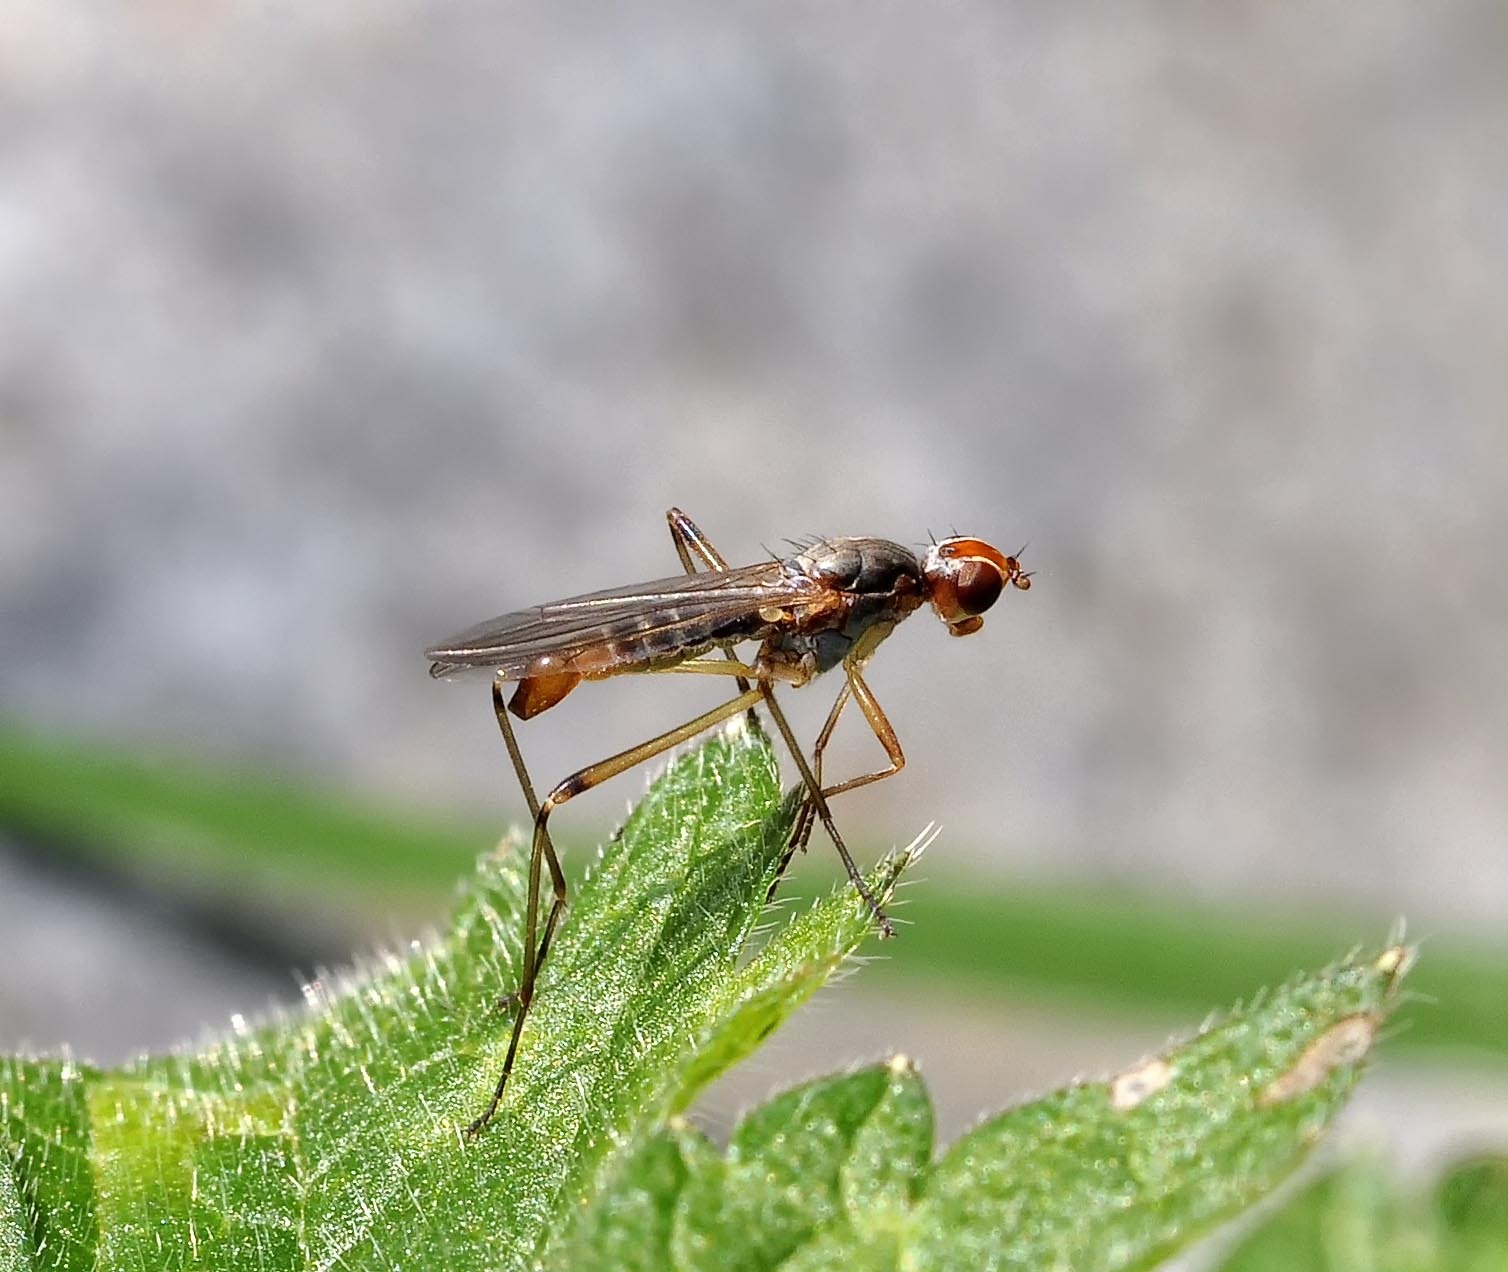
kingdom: Animalia
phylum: Arthropoda
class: Insecta
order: Diptera
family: Micropezidae
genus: Calobata
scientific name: Calobata petronella
